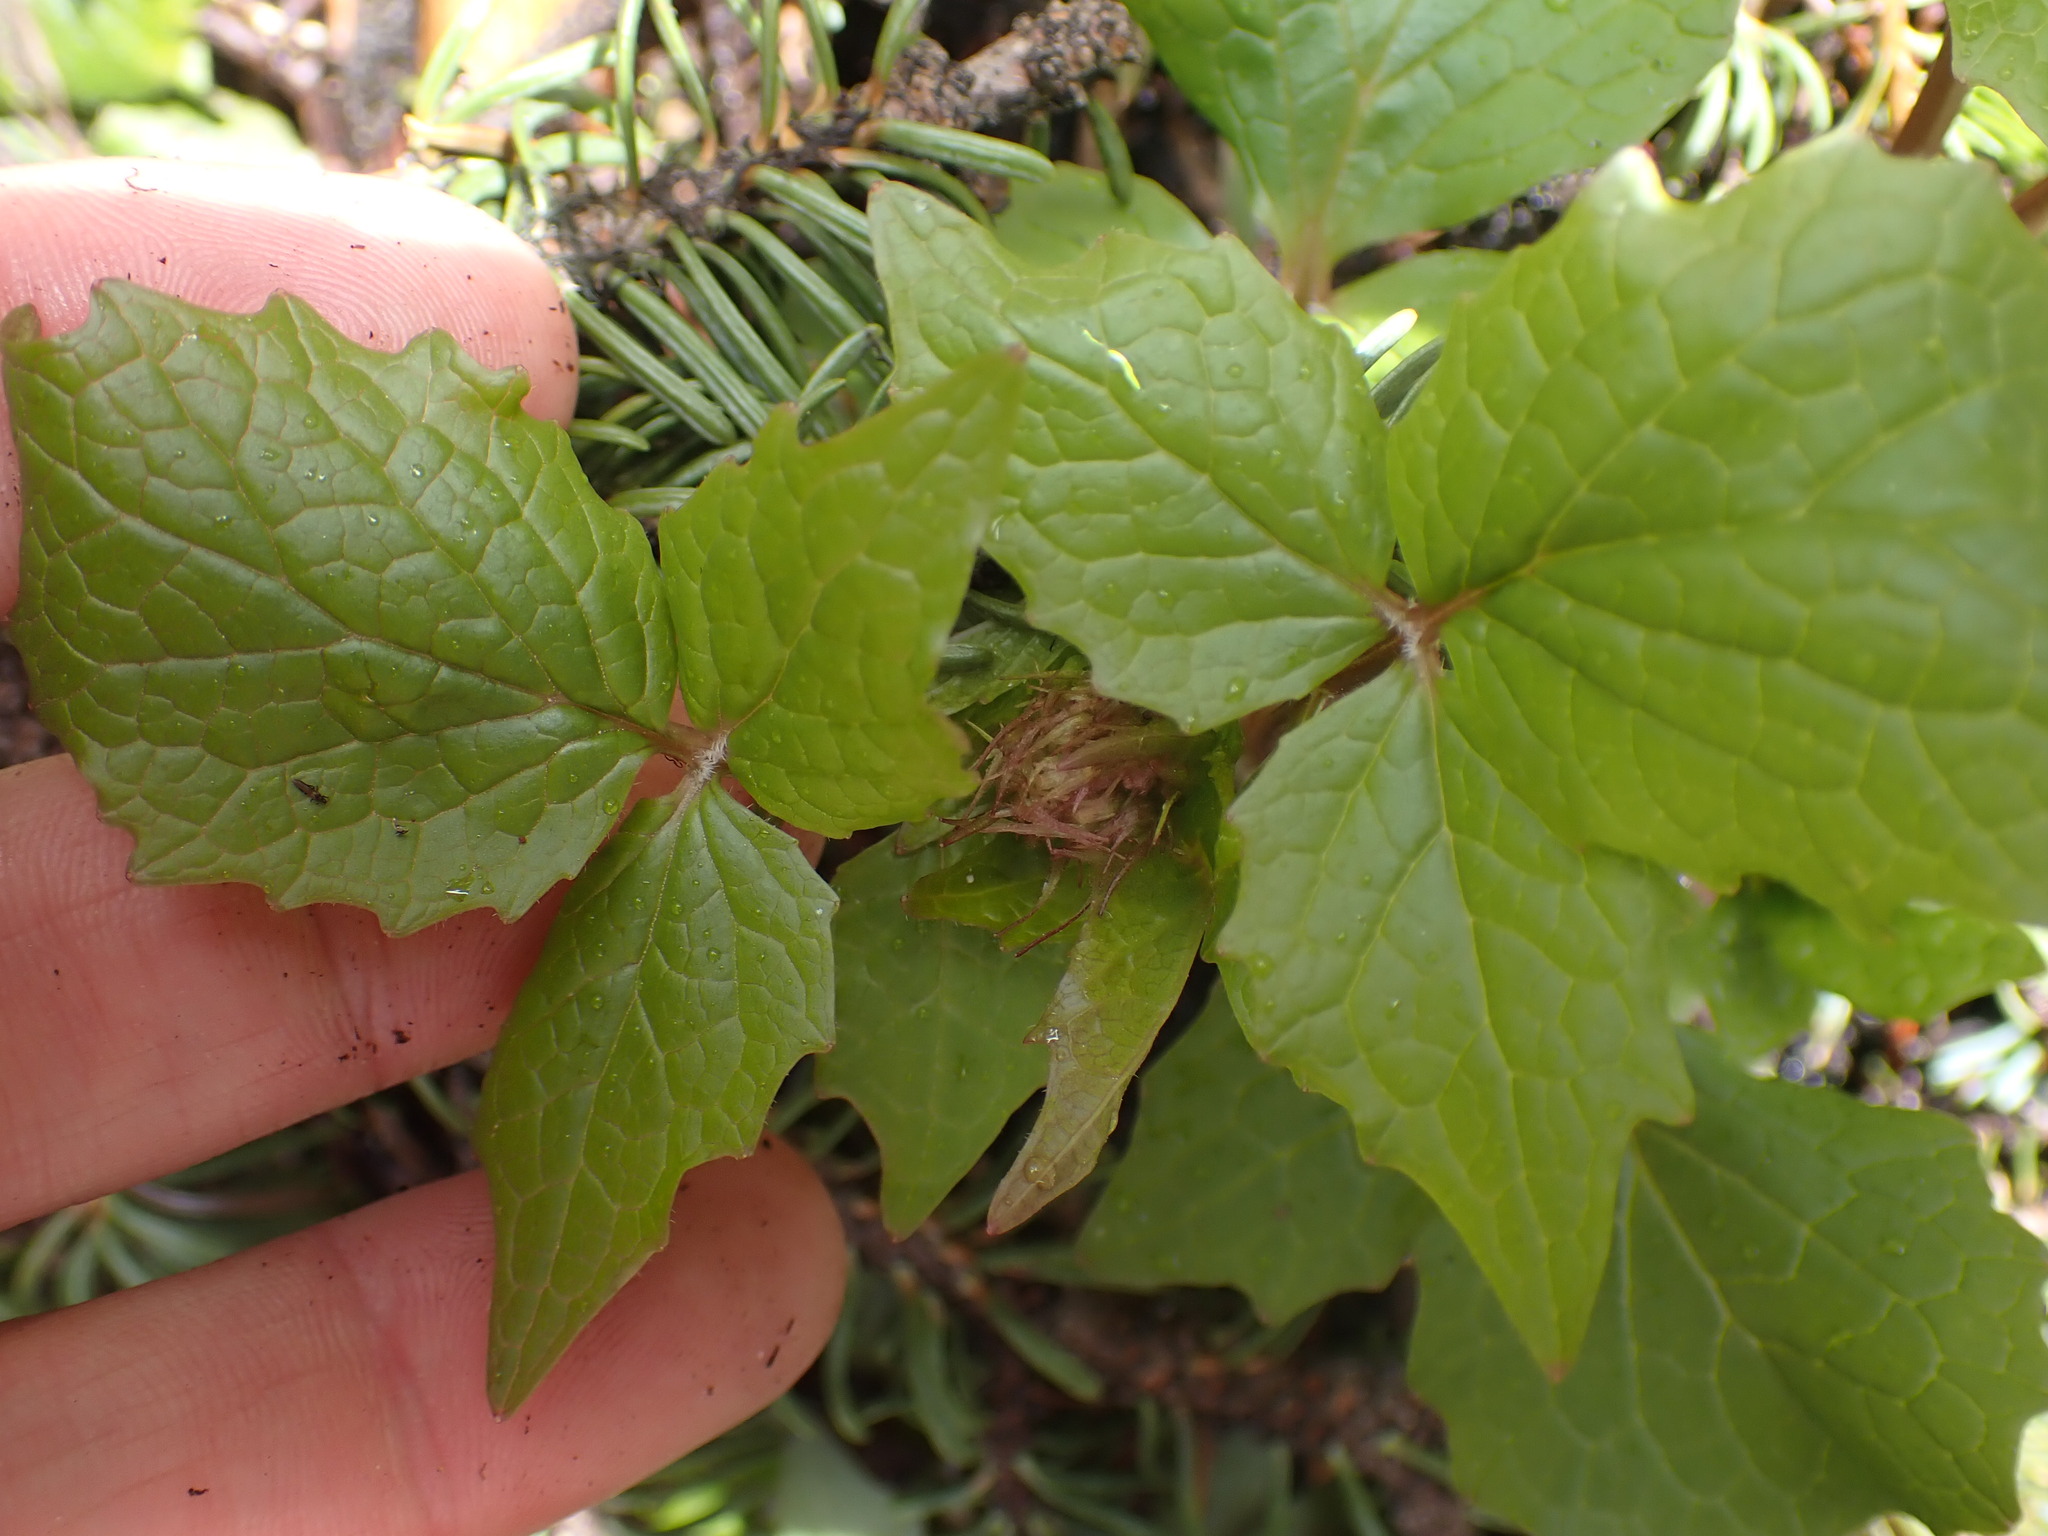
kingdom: Plantae
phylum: Tracheophyta
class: Magnoliopsida
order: Dipsacales
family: Caprifoliaceae
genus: Valeriana
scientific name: Valeriana sitchensis
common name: Pacific valerian
